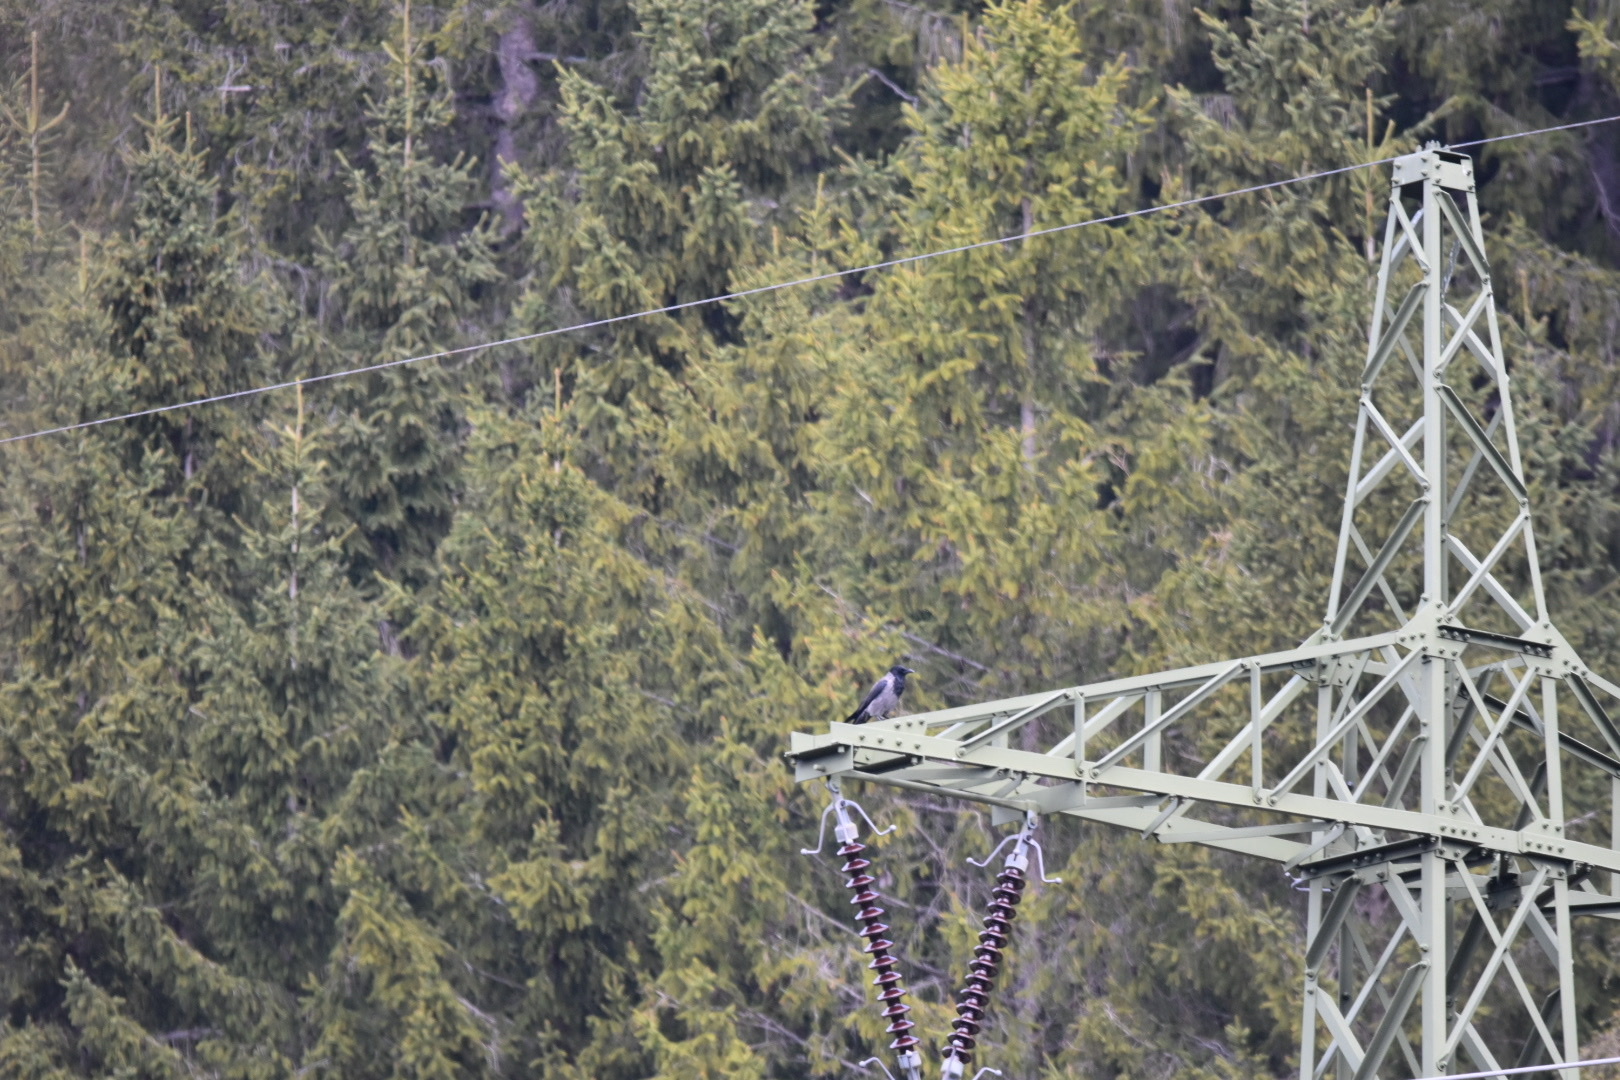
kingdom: Animalia
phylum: Chordata
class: Aves
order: Passeriformes
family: Corvidae
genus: Corvus
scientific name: Corvus cornix
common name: Hooded crow
